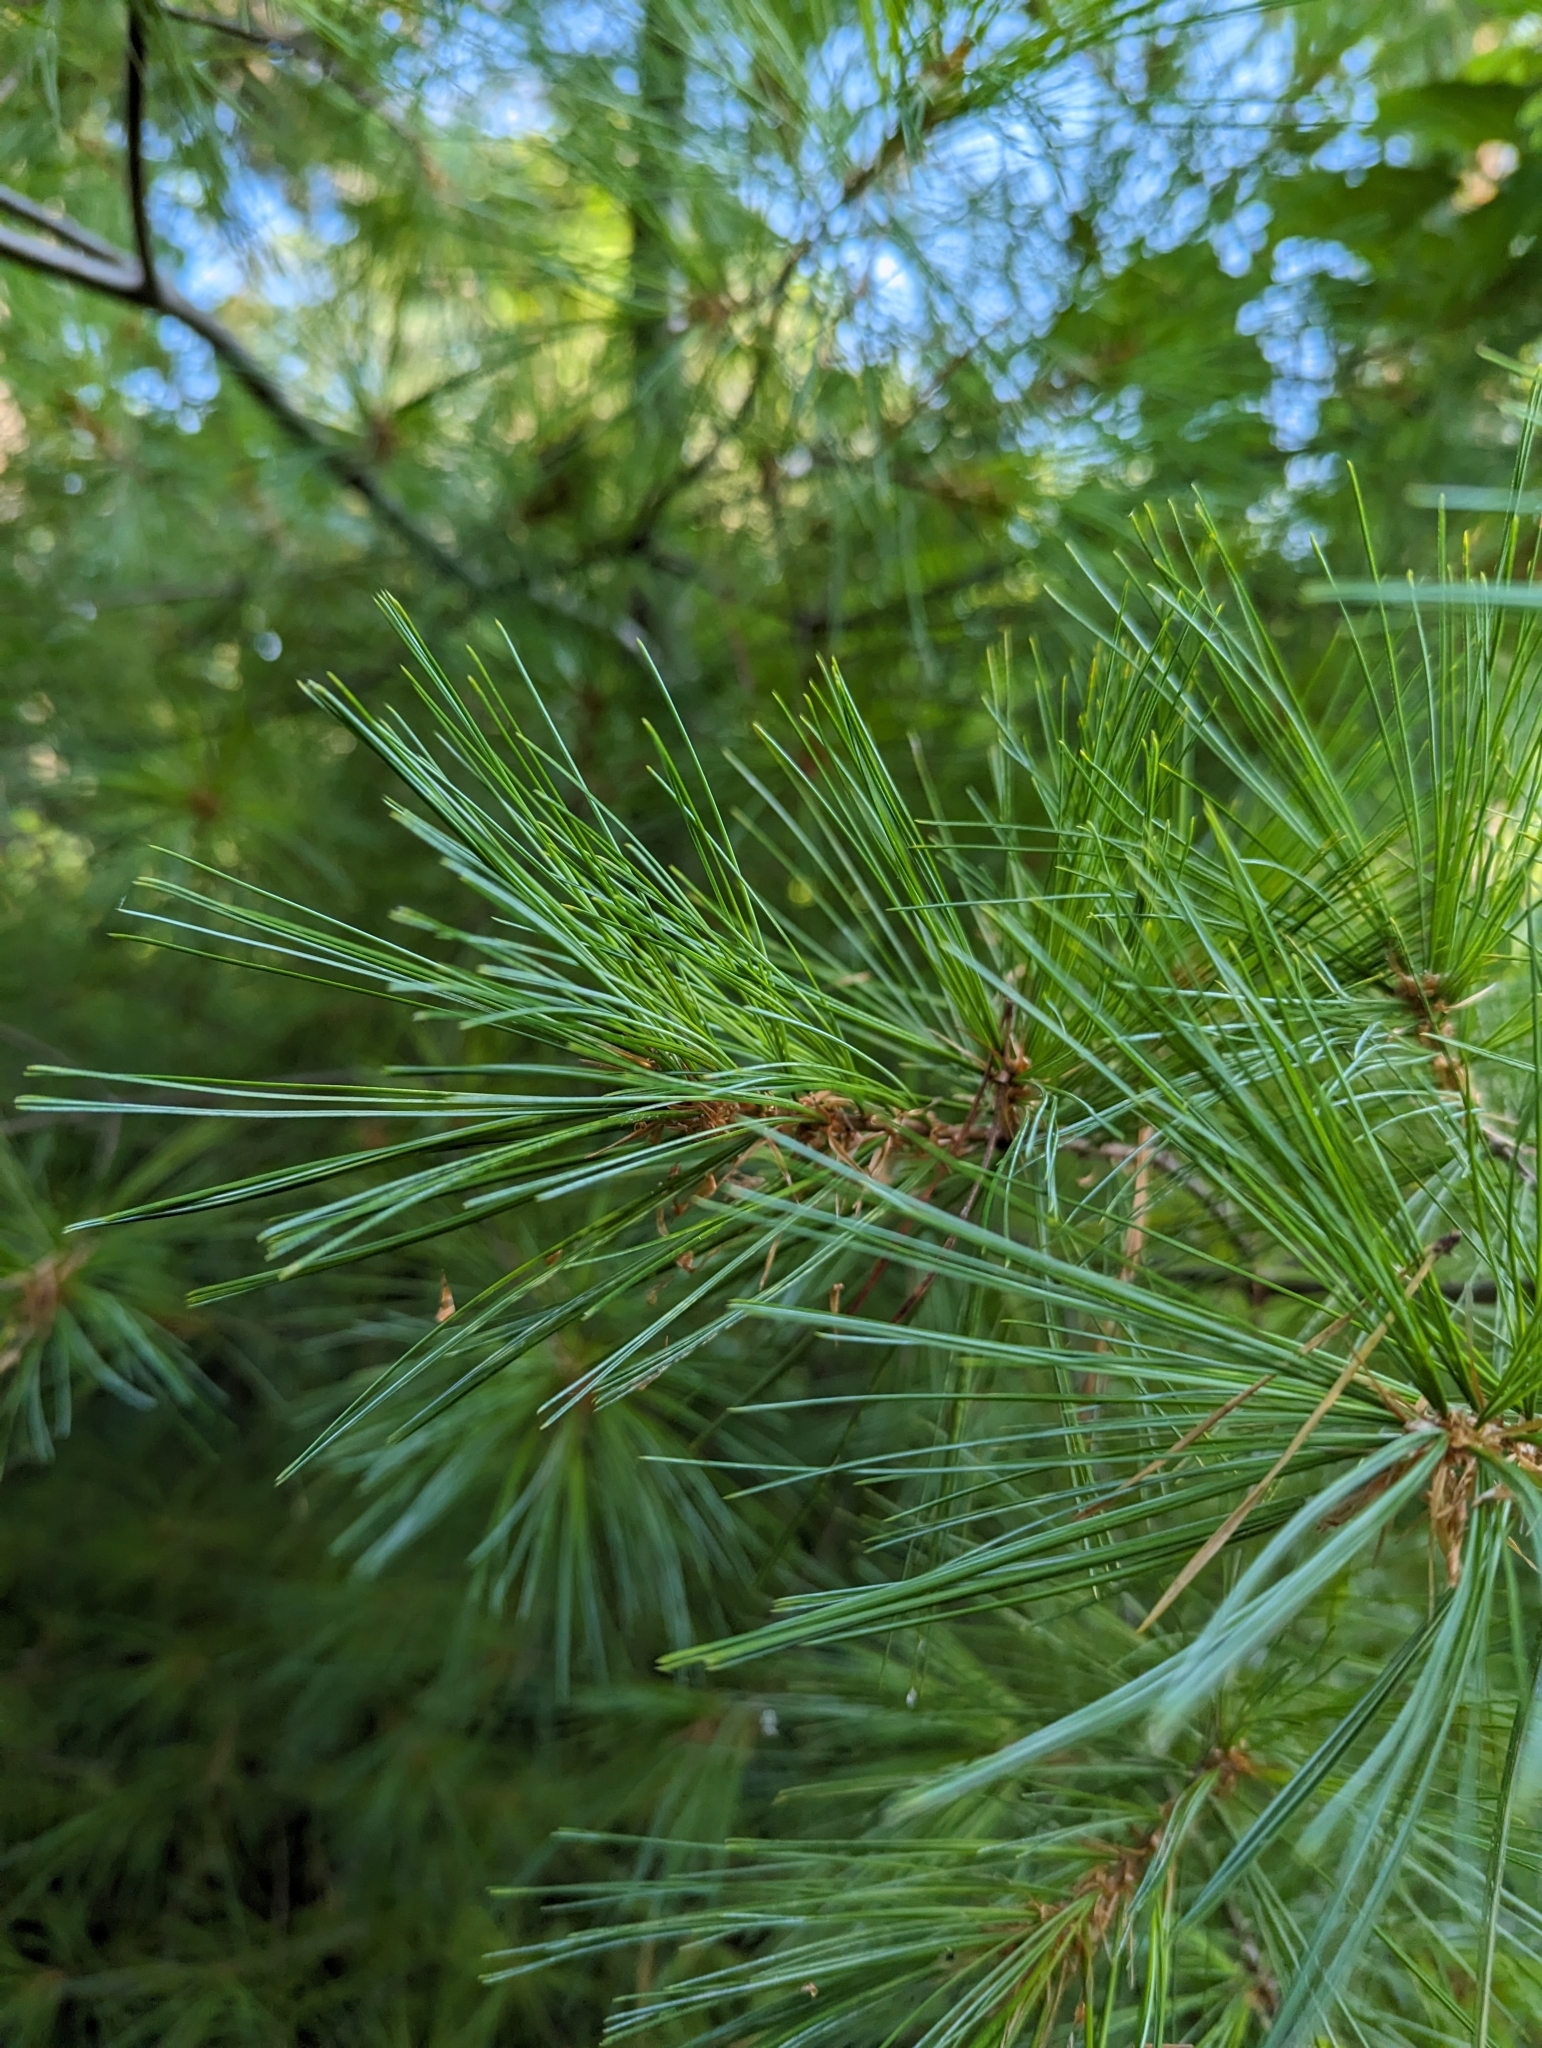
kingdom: Plantae
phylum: Tracheophyta
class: Pinopsida
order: Pinales
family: Pinaceae
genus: Pinus
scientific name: Pinus strobus
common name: Weymouth pine
